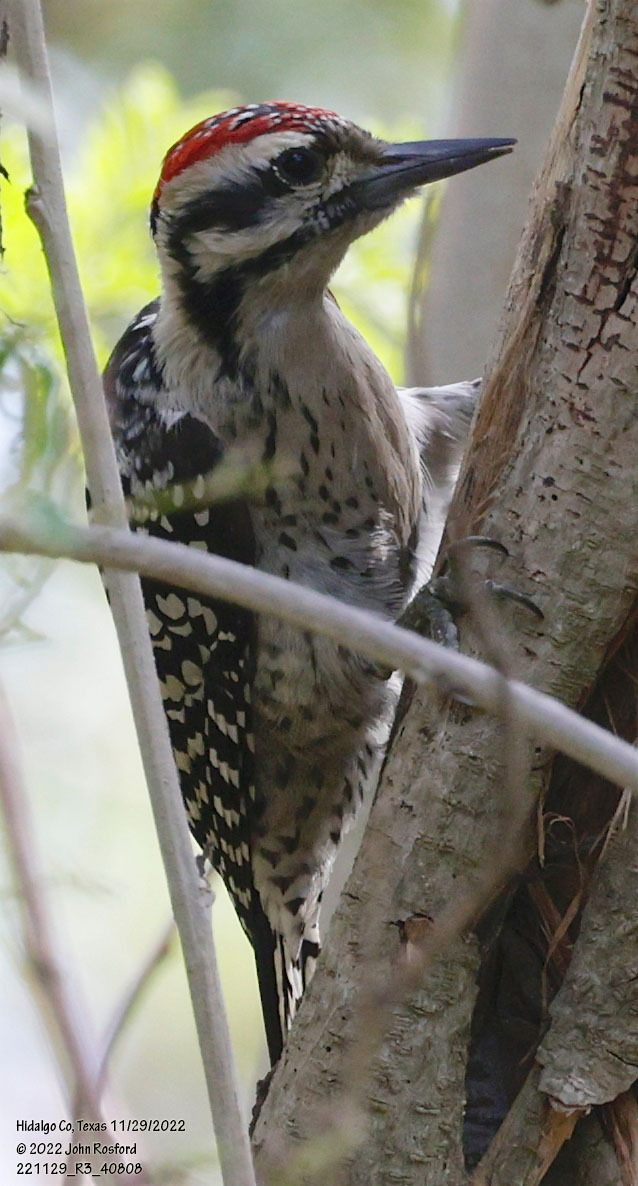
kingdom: Animalia
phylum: Chordata
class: Aves
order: Piciformes
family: Picidae
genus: Dryobates
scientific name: Dryobates scalaris
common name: Ladder-backed woodpecker
